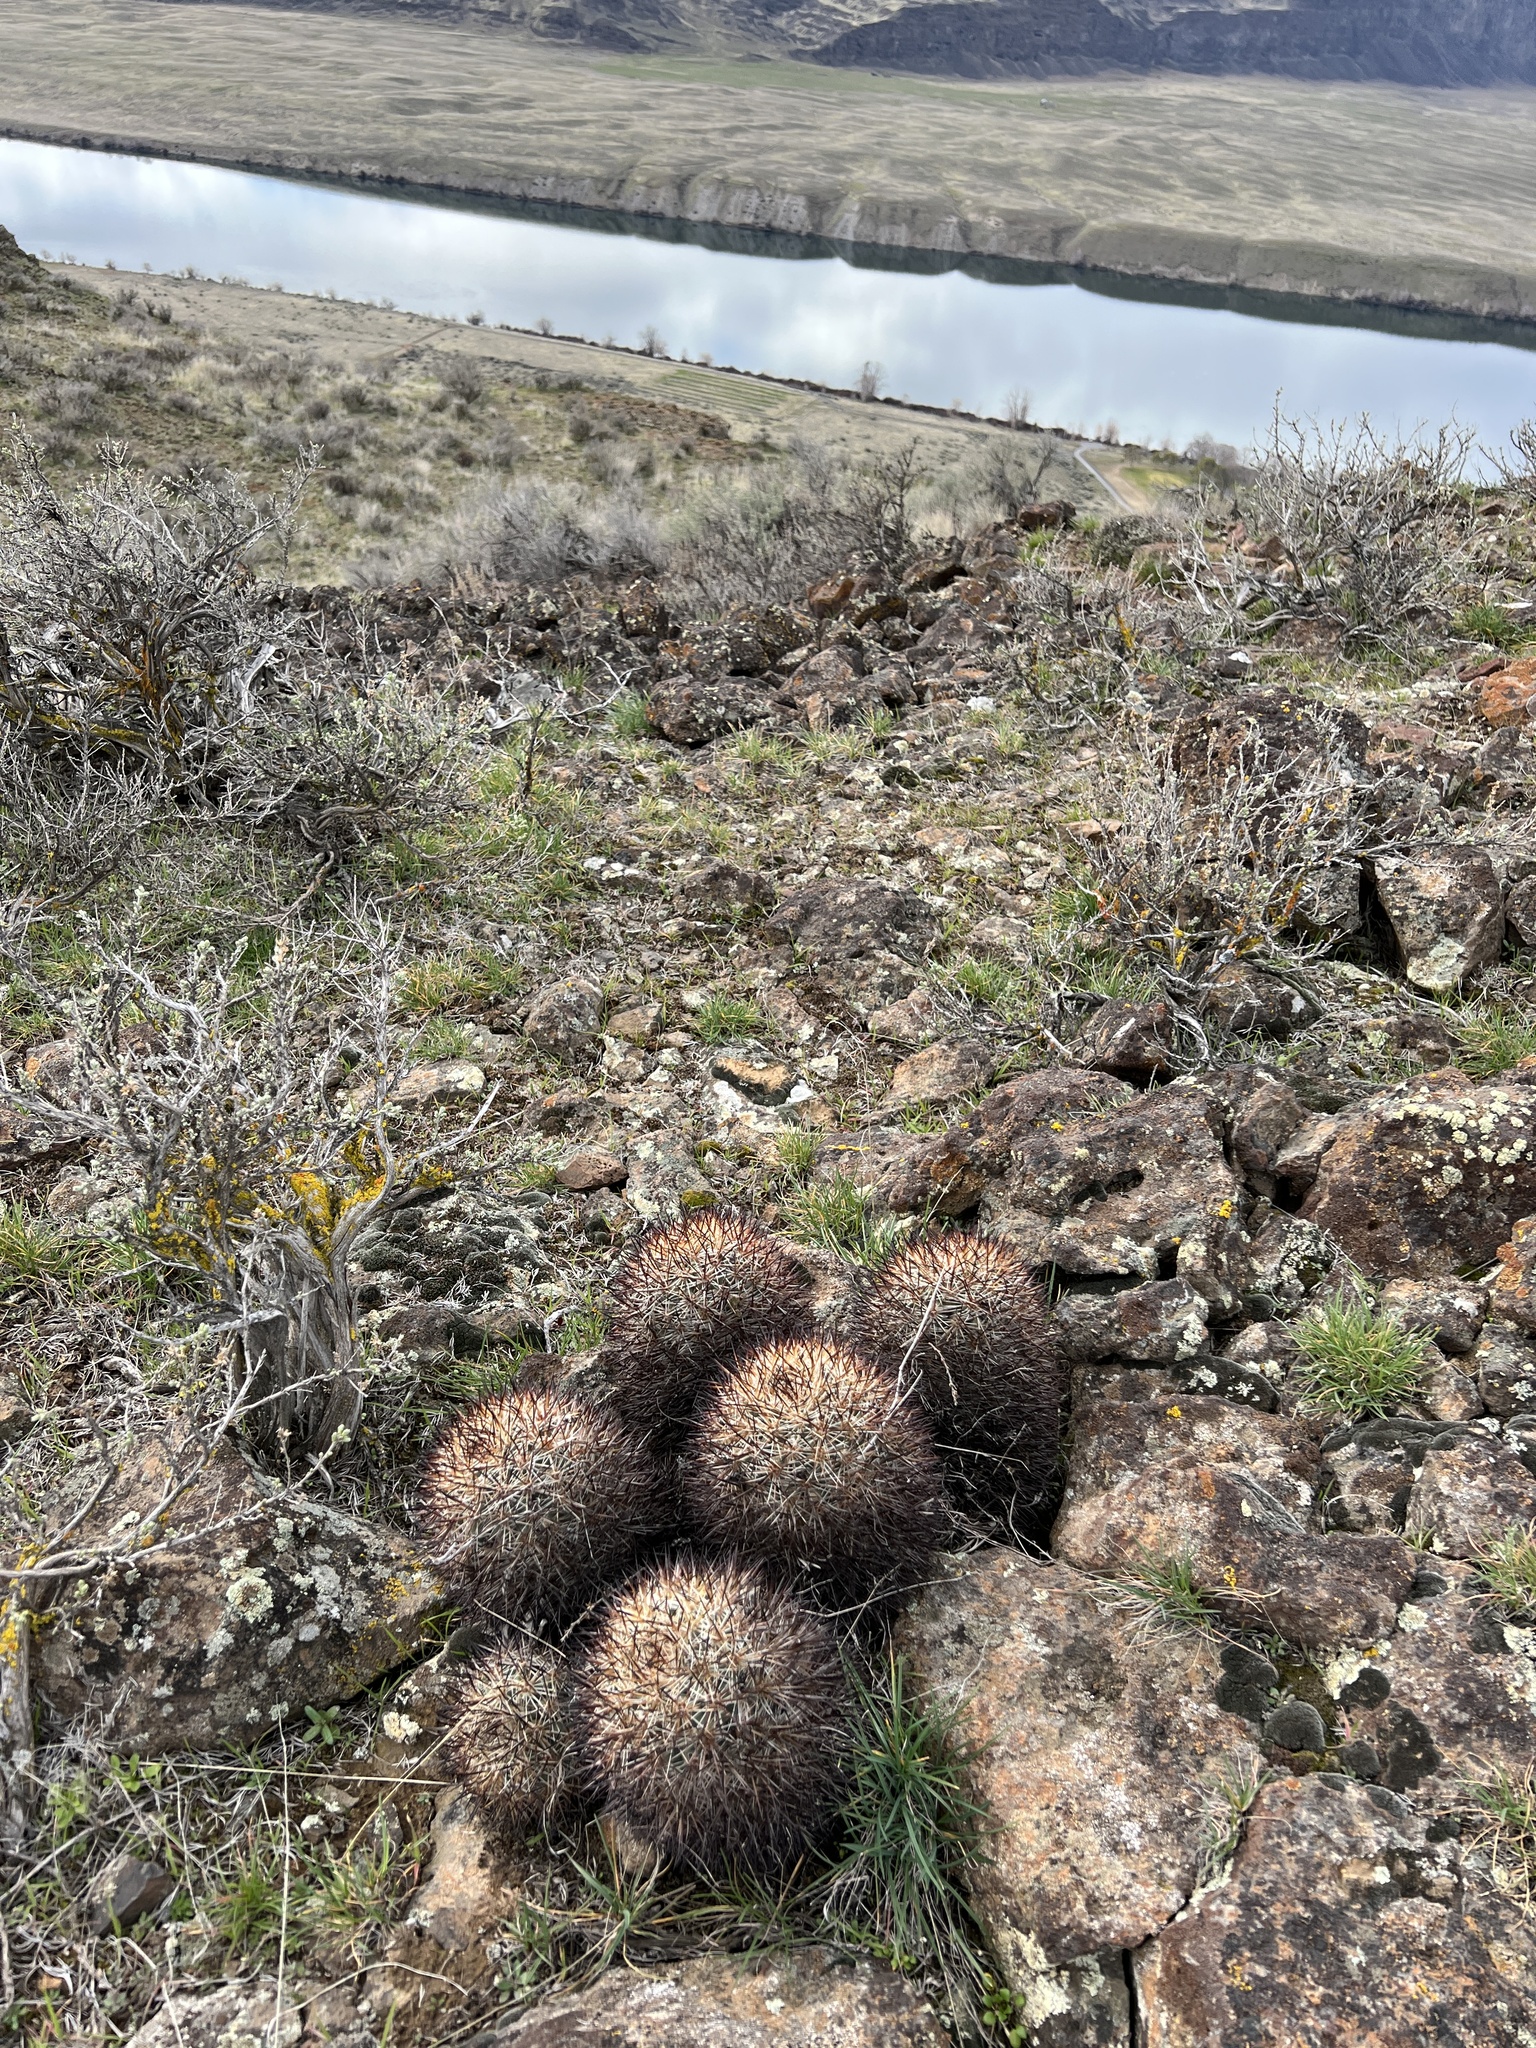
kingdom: Plantae
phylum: Tracheophyta
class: Magnoliopsida
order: Caryophyllales
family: Cactaceae
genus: Pediocactus
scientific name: Pediocactus nigrispinus
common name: Simpson's hedgehog cactus
